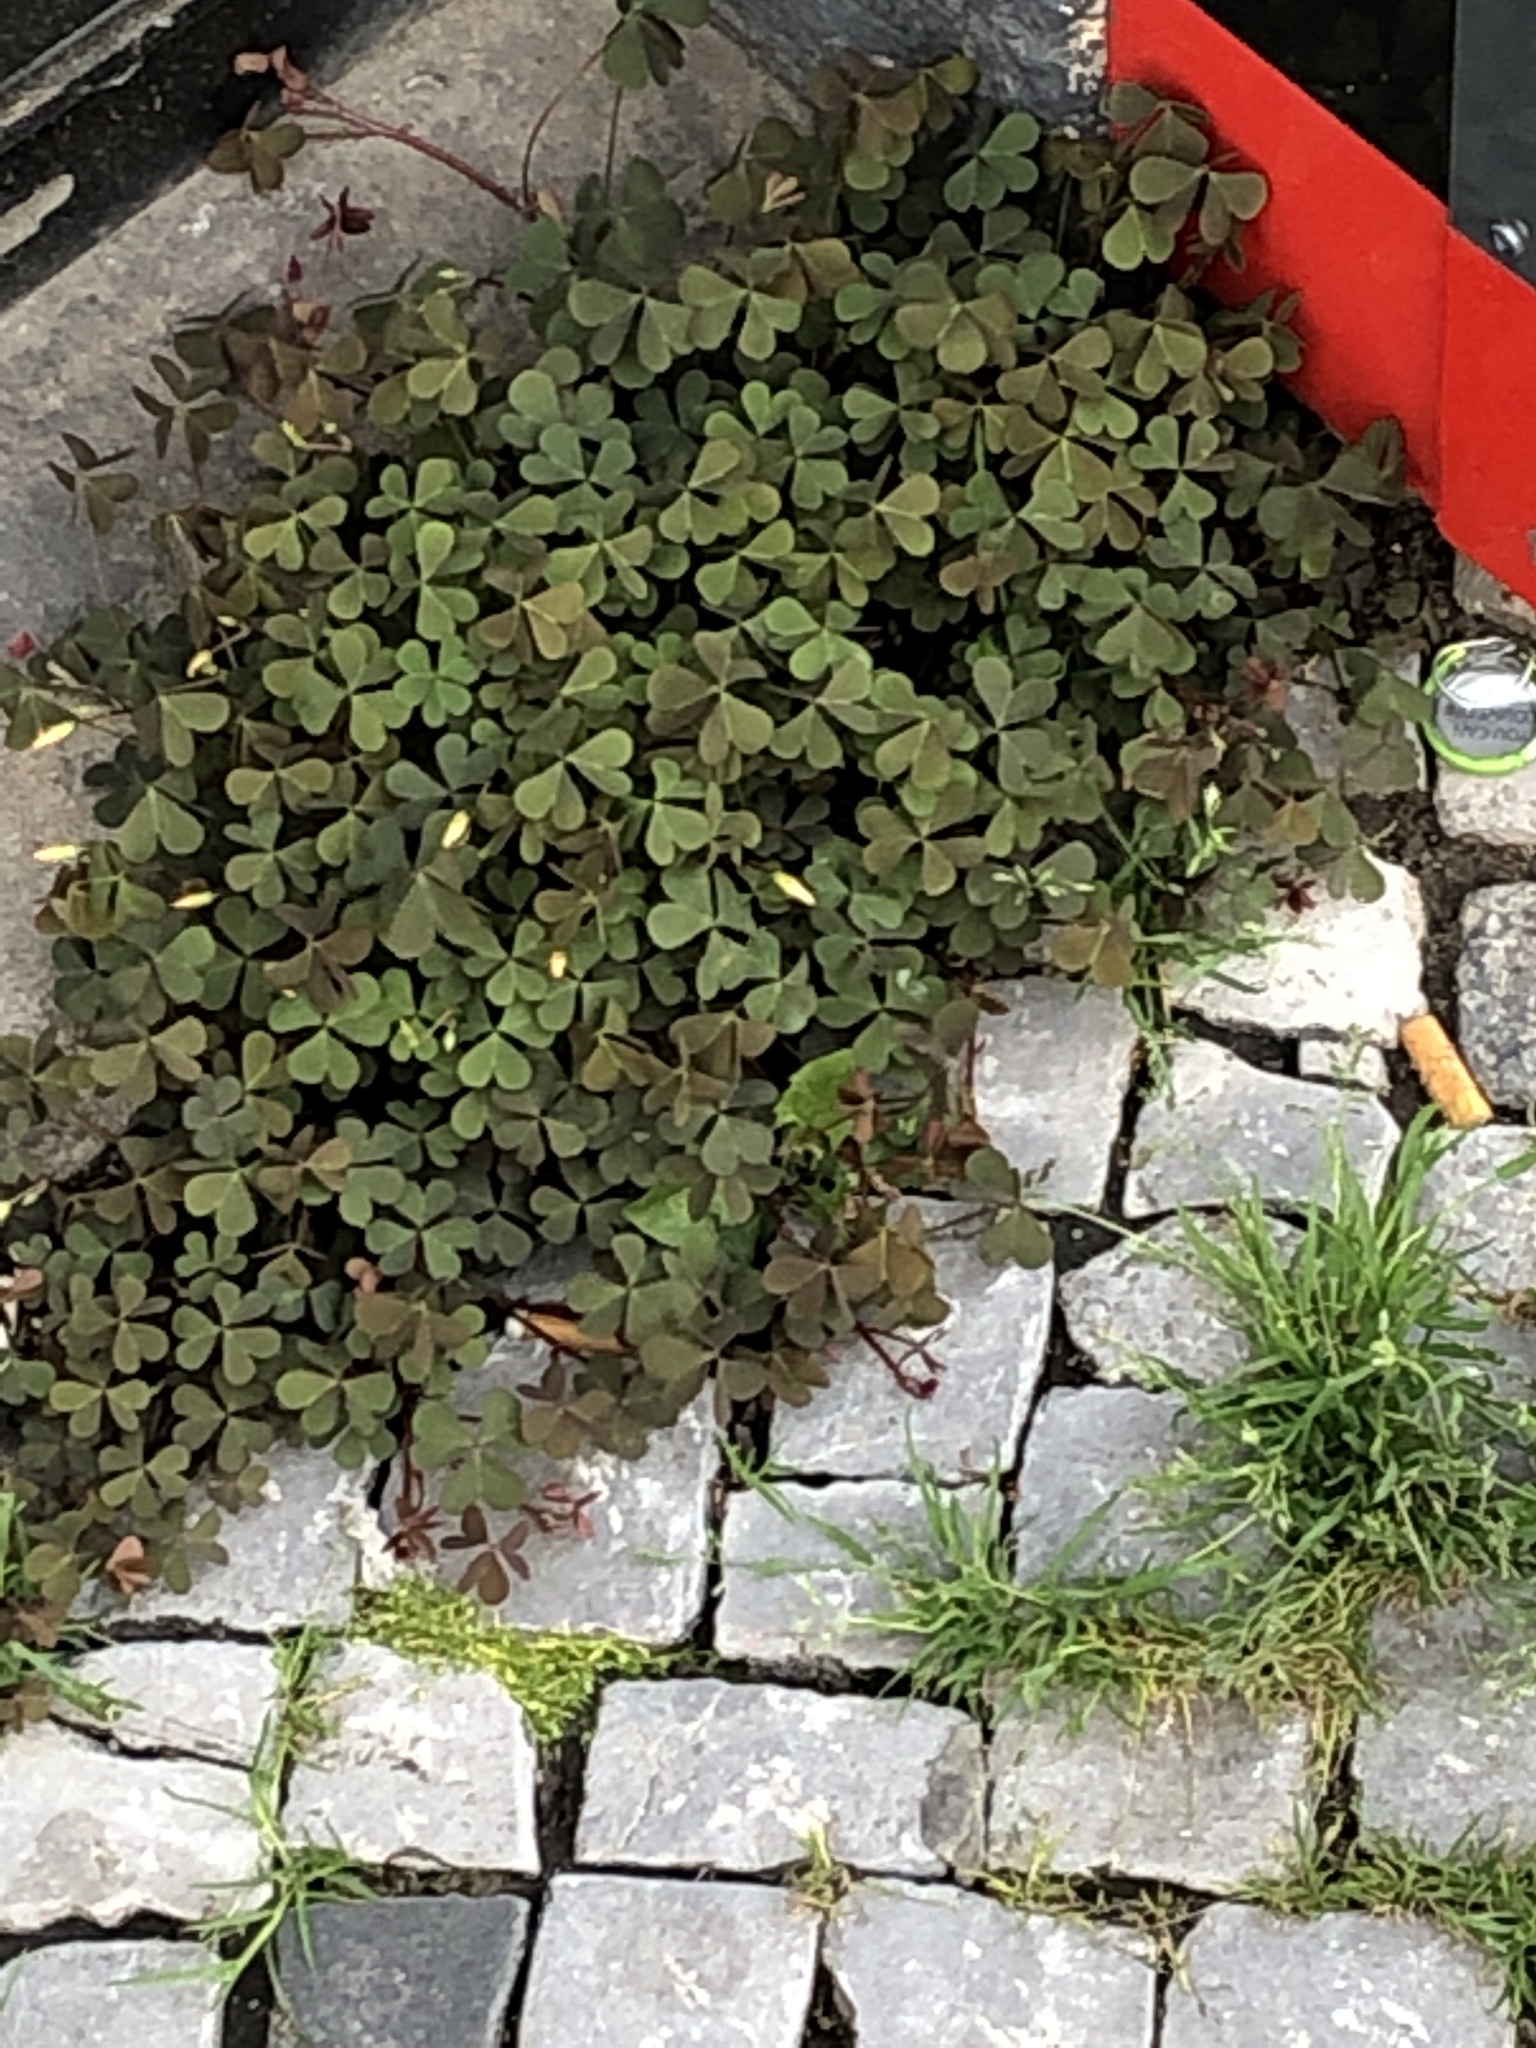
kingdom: Plantae
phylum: Tracheophyta
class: Magnoliopsida
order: Oxalidales
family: Oxalidaceae
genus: Oxalis
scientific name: Oxalis corniculata
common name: Procumbent yellow-sorrel
